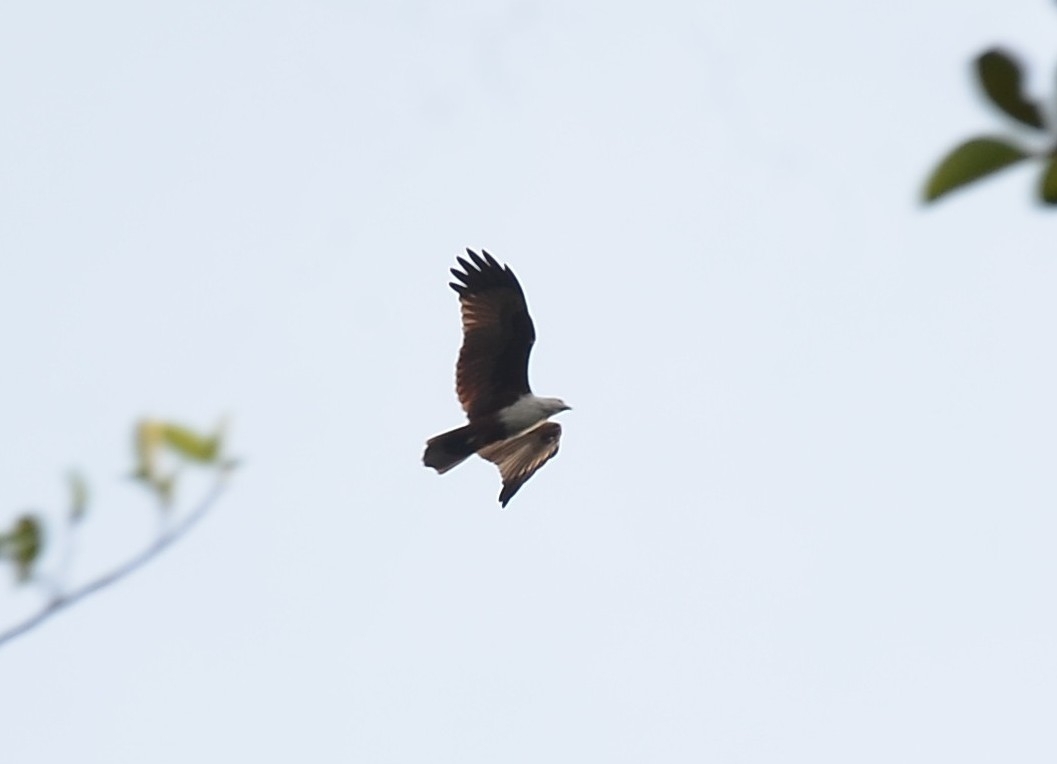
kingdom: Animalia
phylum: Chordata
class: Aves
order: Accipitriformes
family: Accipitridae
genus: Haliastur
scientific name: Haliastur indus
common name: Brahminy kite
